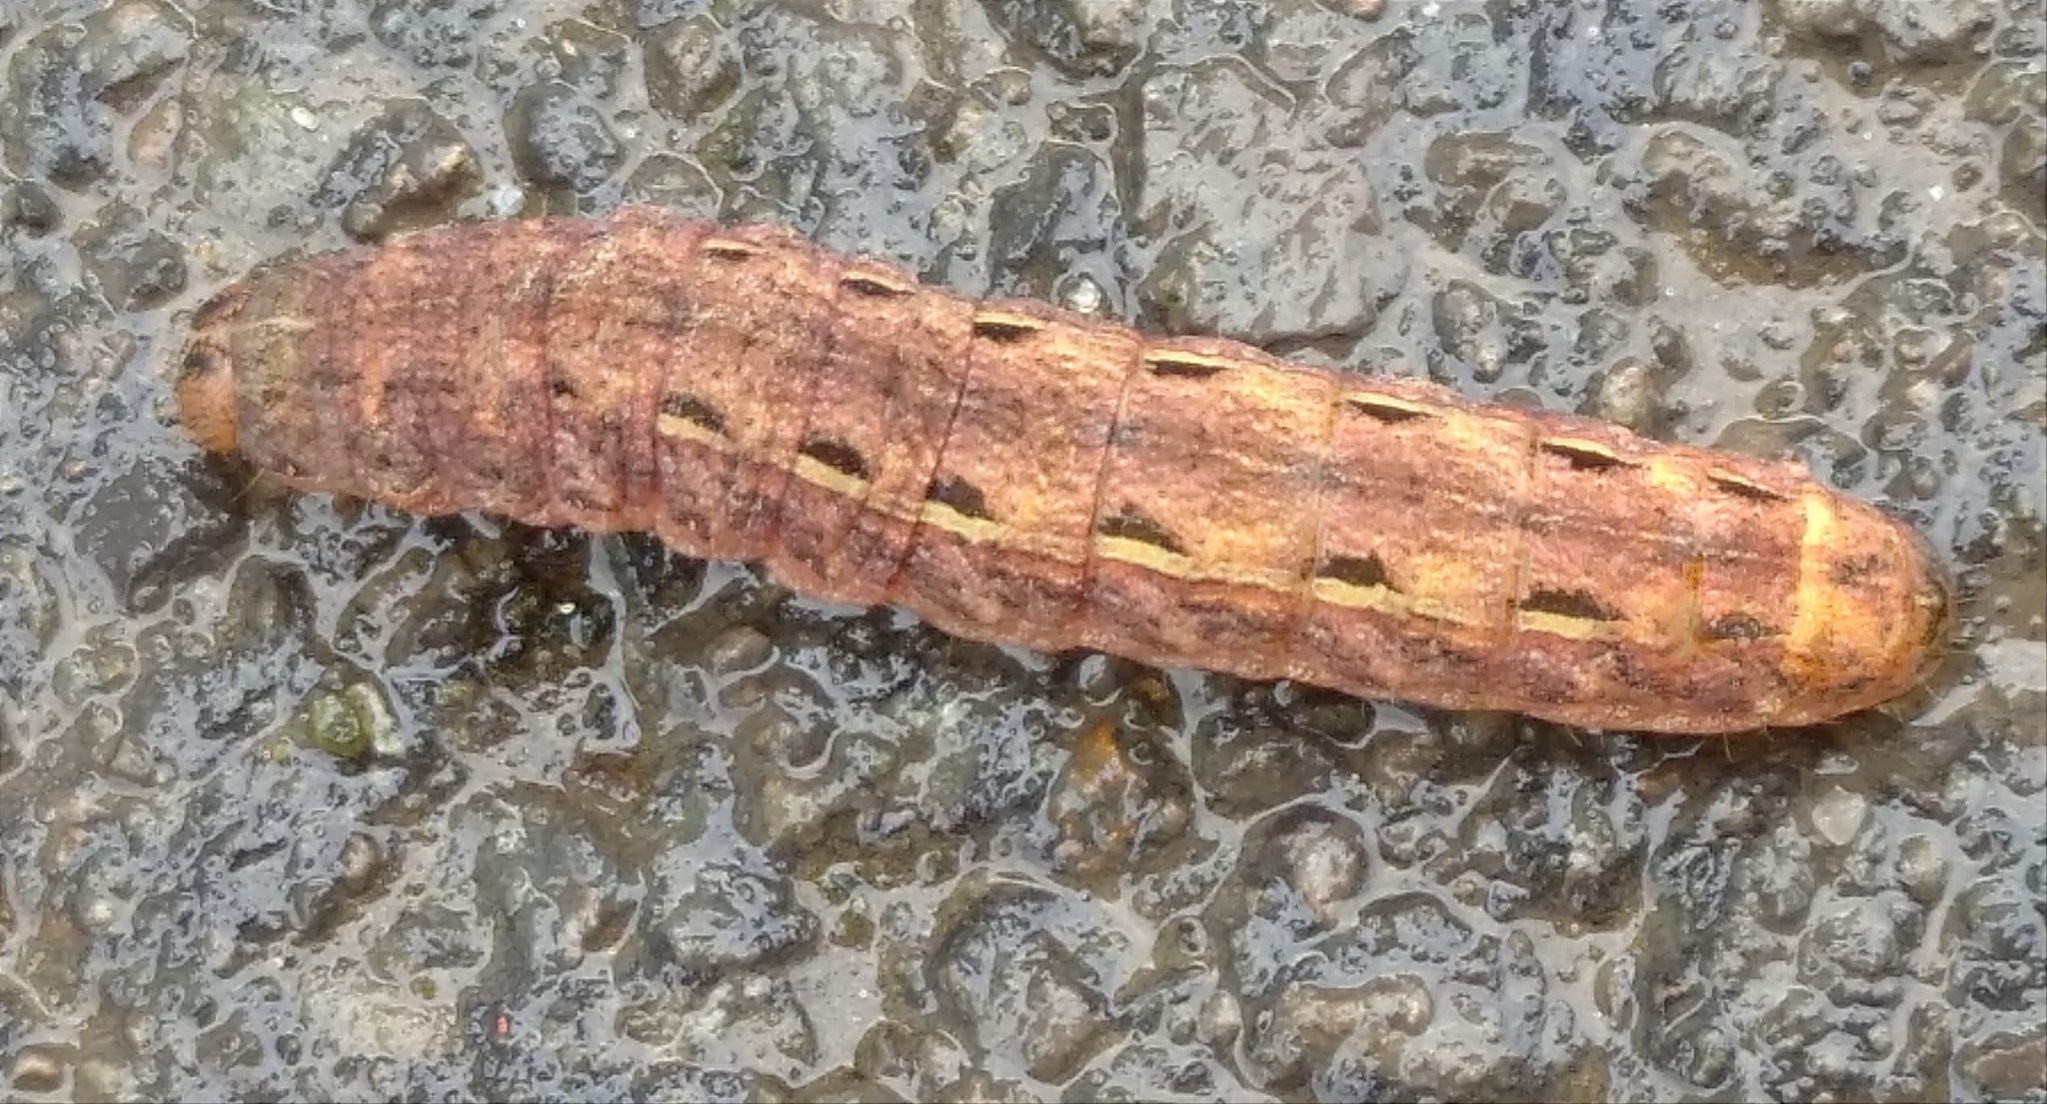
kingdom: Animalia
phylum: Arthropoda
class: Insecta
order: Lepidoptera
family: Noctuidae
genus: Noctua
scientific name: Noctua pronuba
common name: Large yellow underwing
